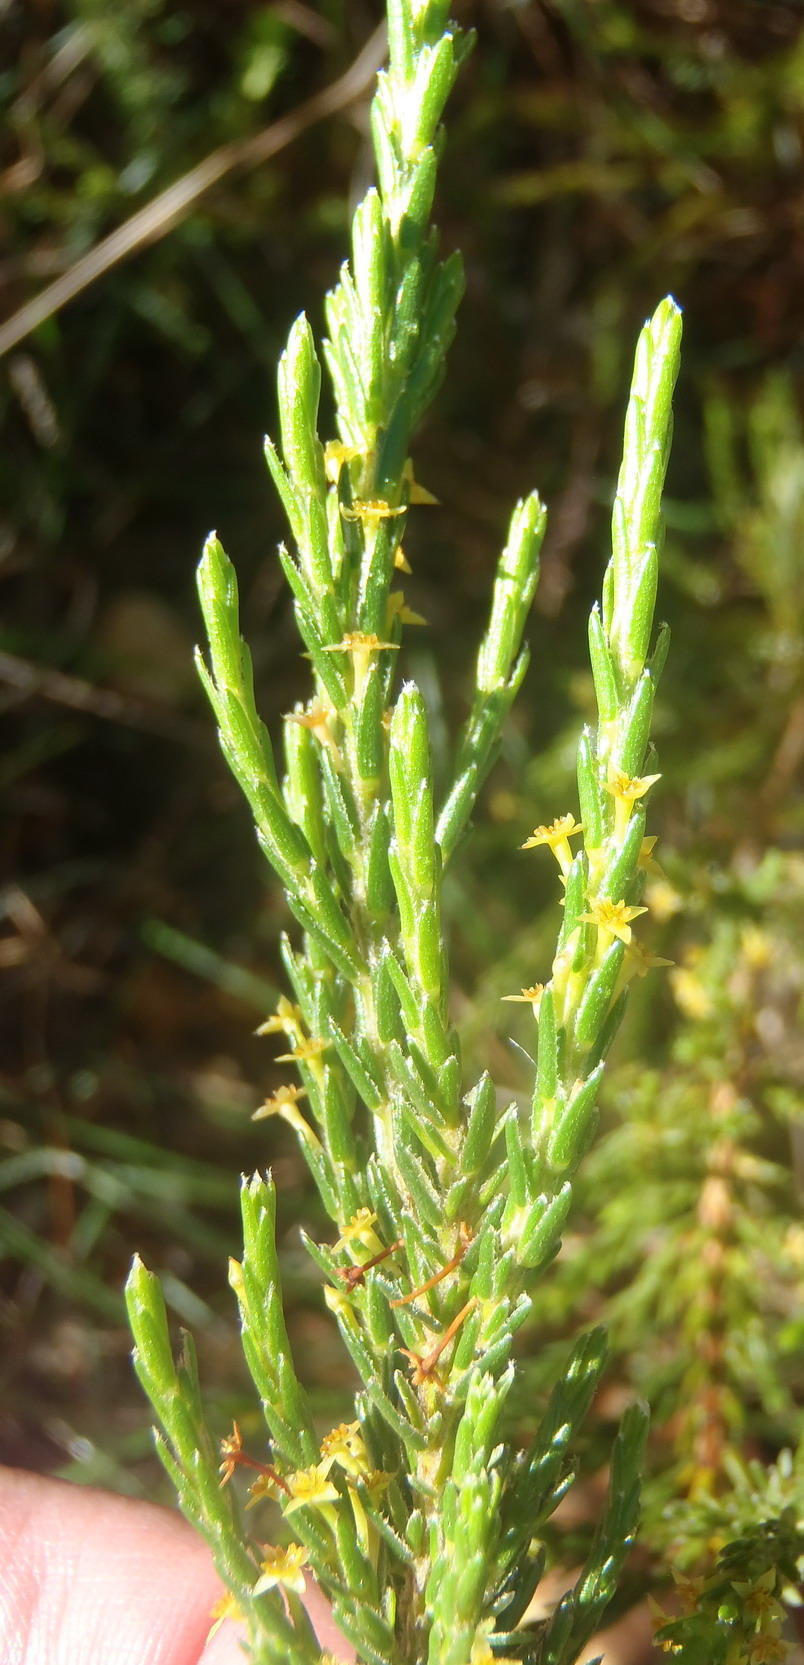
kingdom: Plantae
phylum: Tracheophyta
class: Magnoliopsida
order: Malvales
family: Thymelaeaceae
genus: Struthiola
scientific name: Struthiola parviflora
